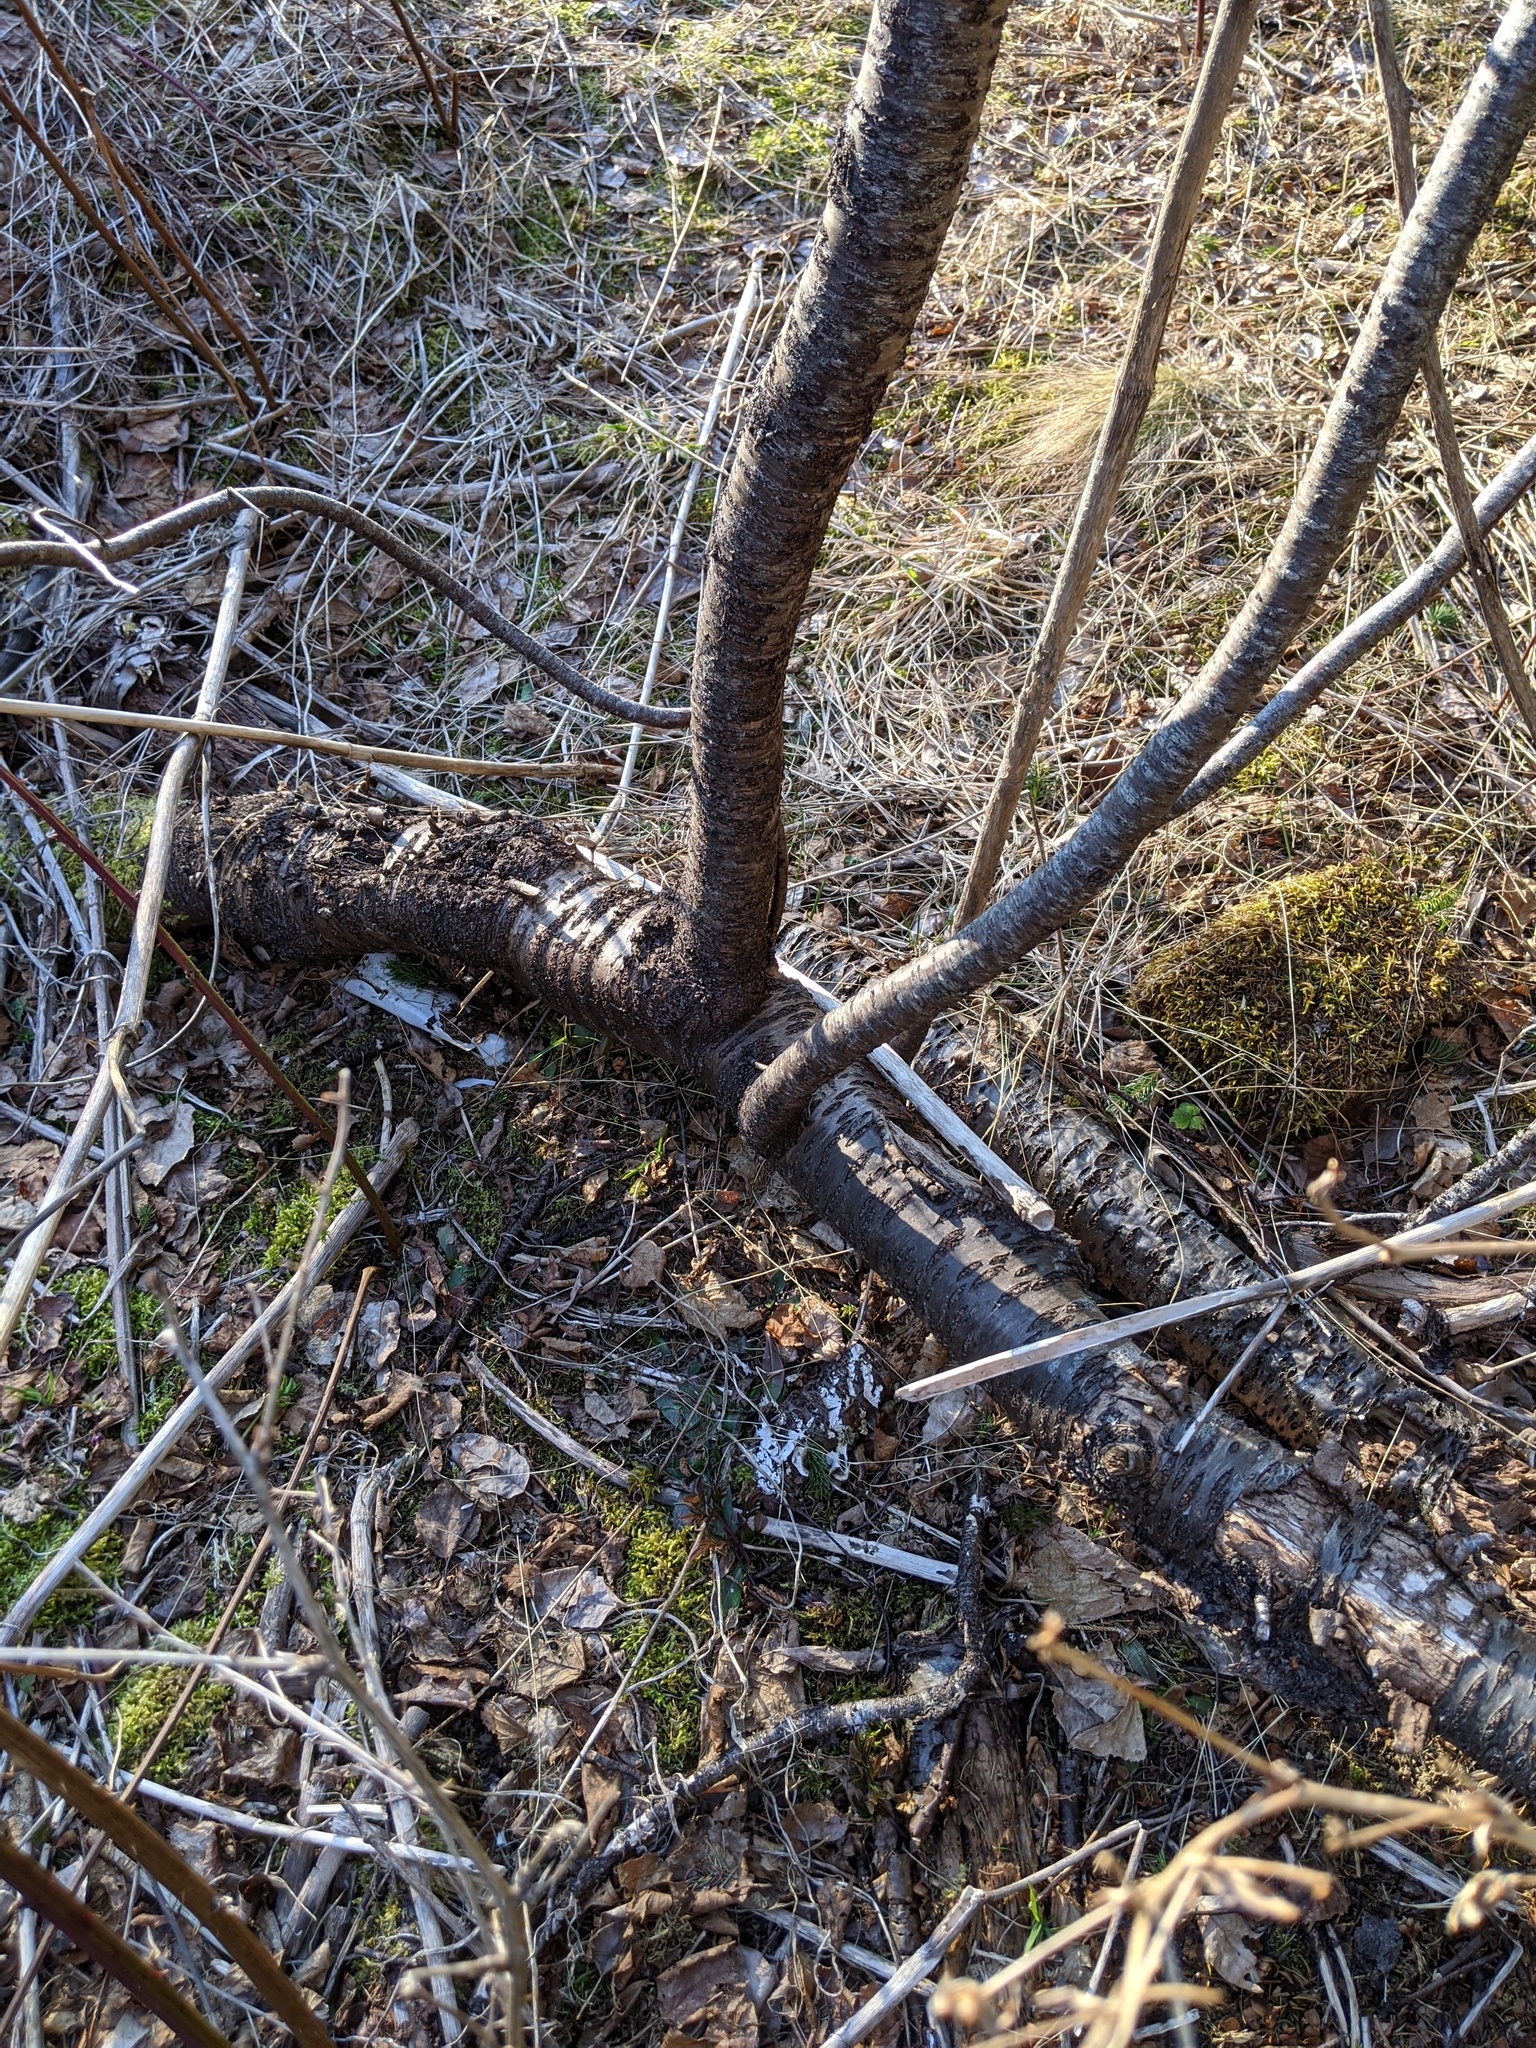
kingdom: Plantae
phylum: Tracheophyta
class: Magnoliopsida
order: Rosales
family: Rosaceae
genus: Prunus
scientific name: Prunus pensylvanica
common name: Pin cherry
